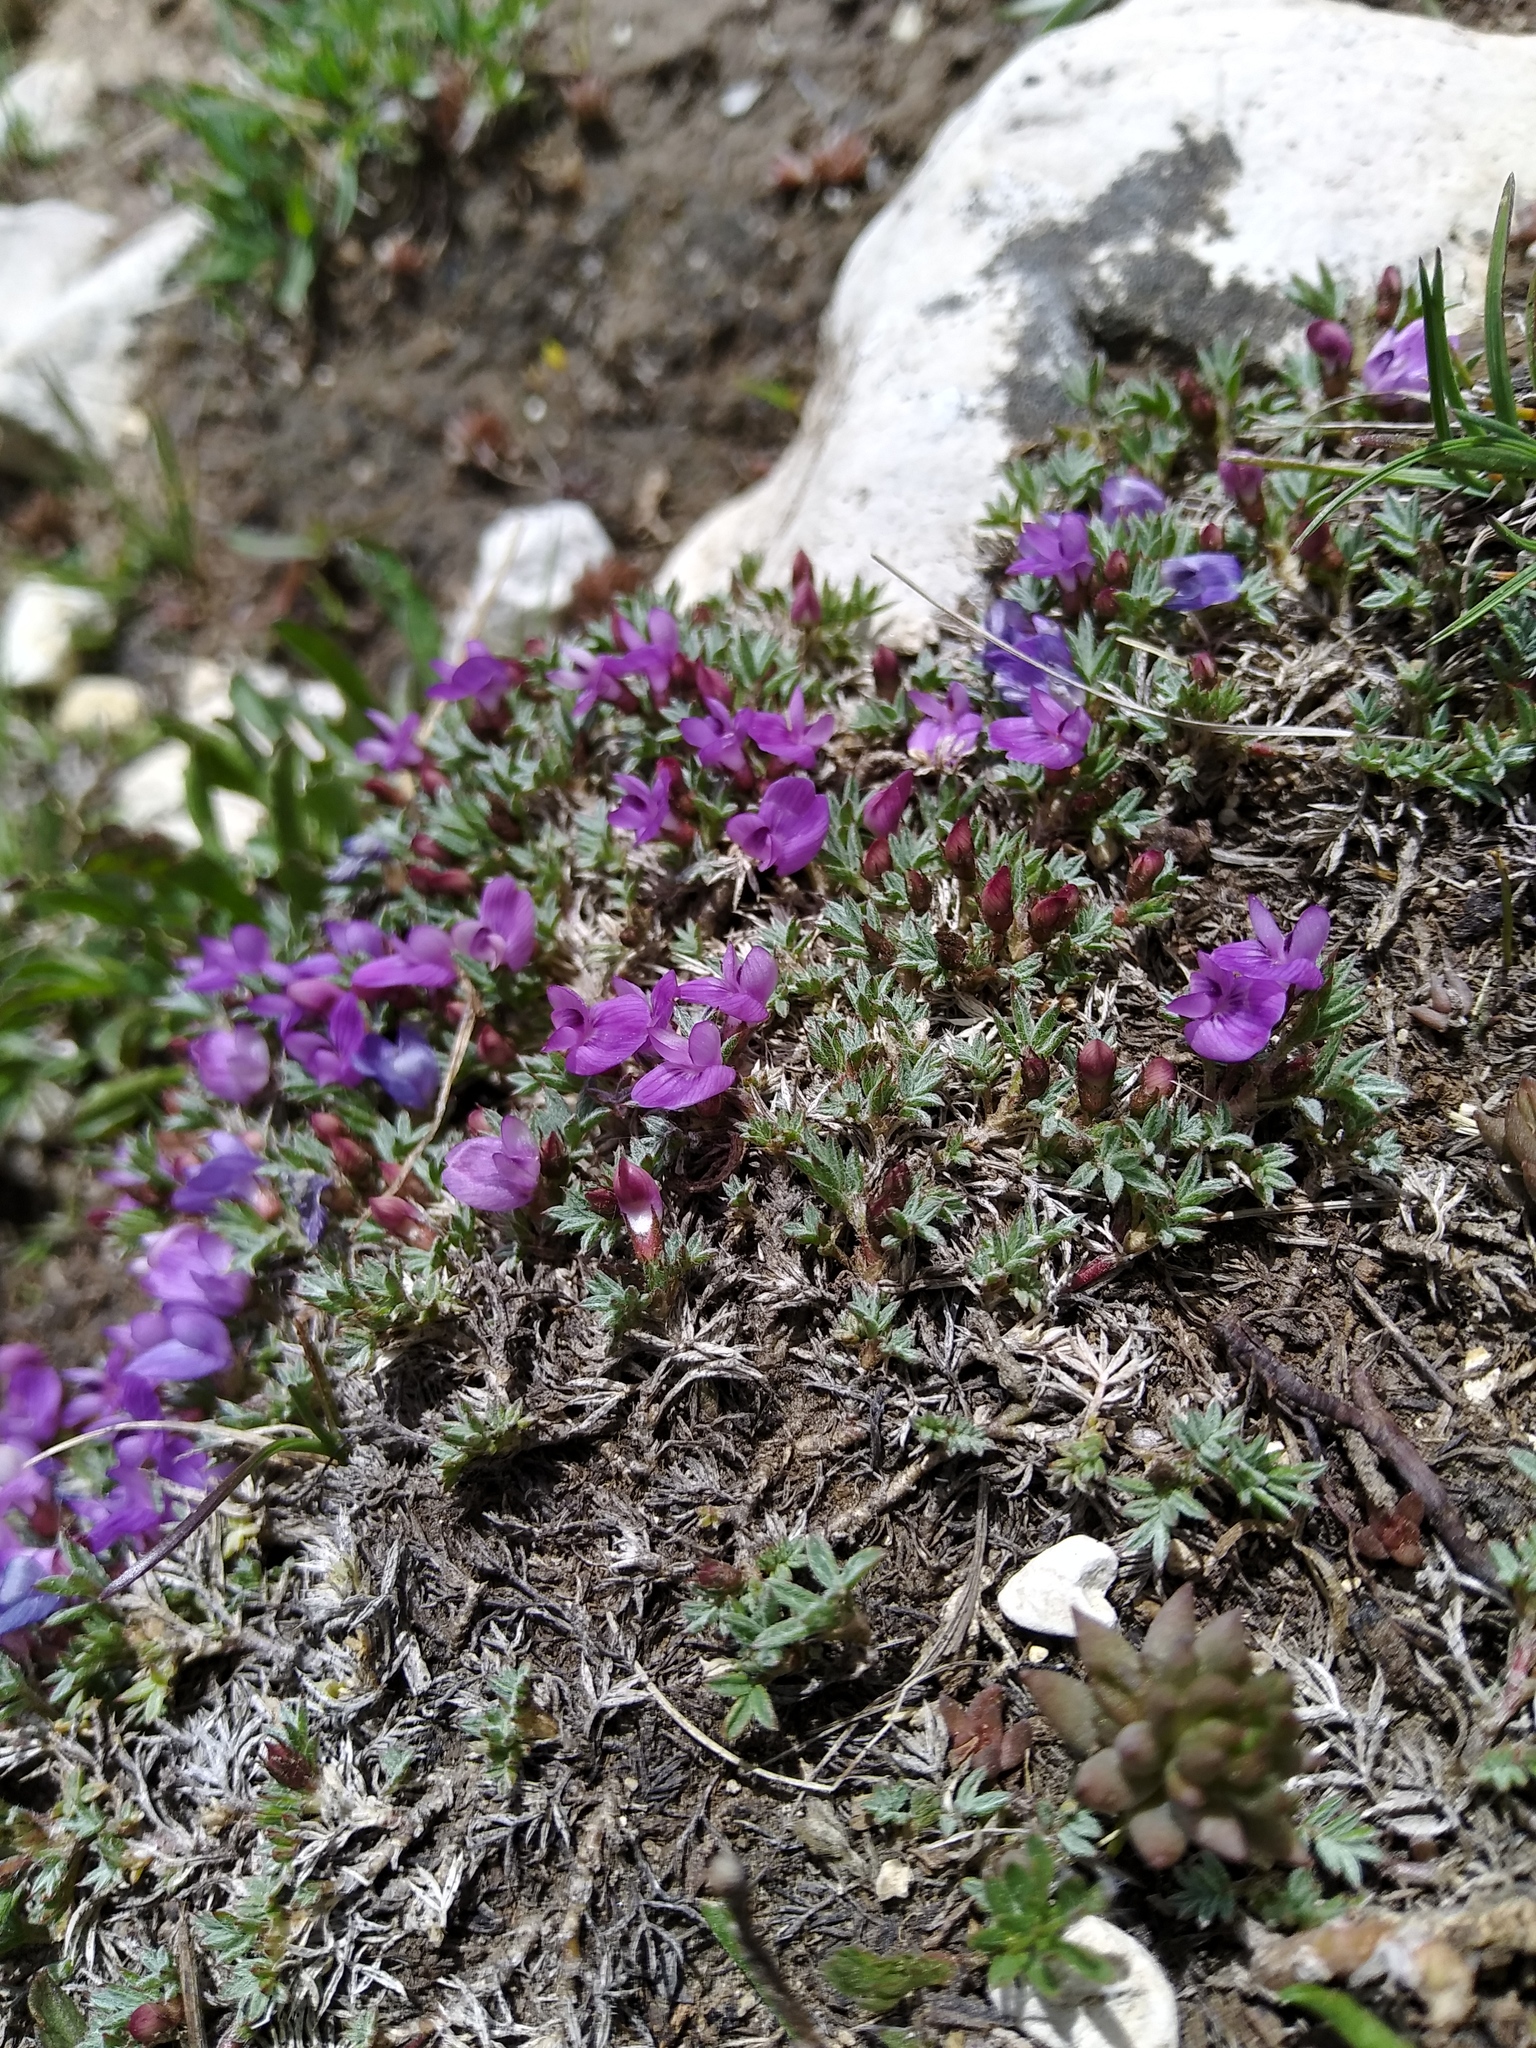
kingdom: Plantae
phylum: Tracheophyta
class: Magnoliopsida
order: Fabales
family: Fabaceae
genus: Astragalus
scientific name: Astragalus kentrophyta
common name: Prickly milk-vetch
